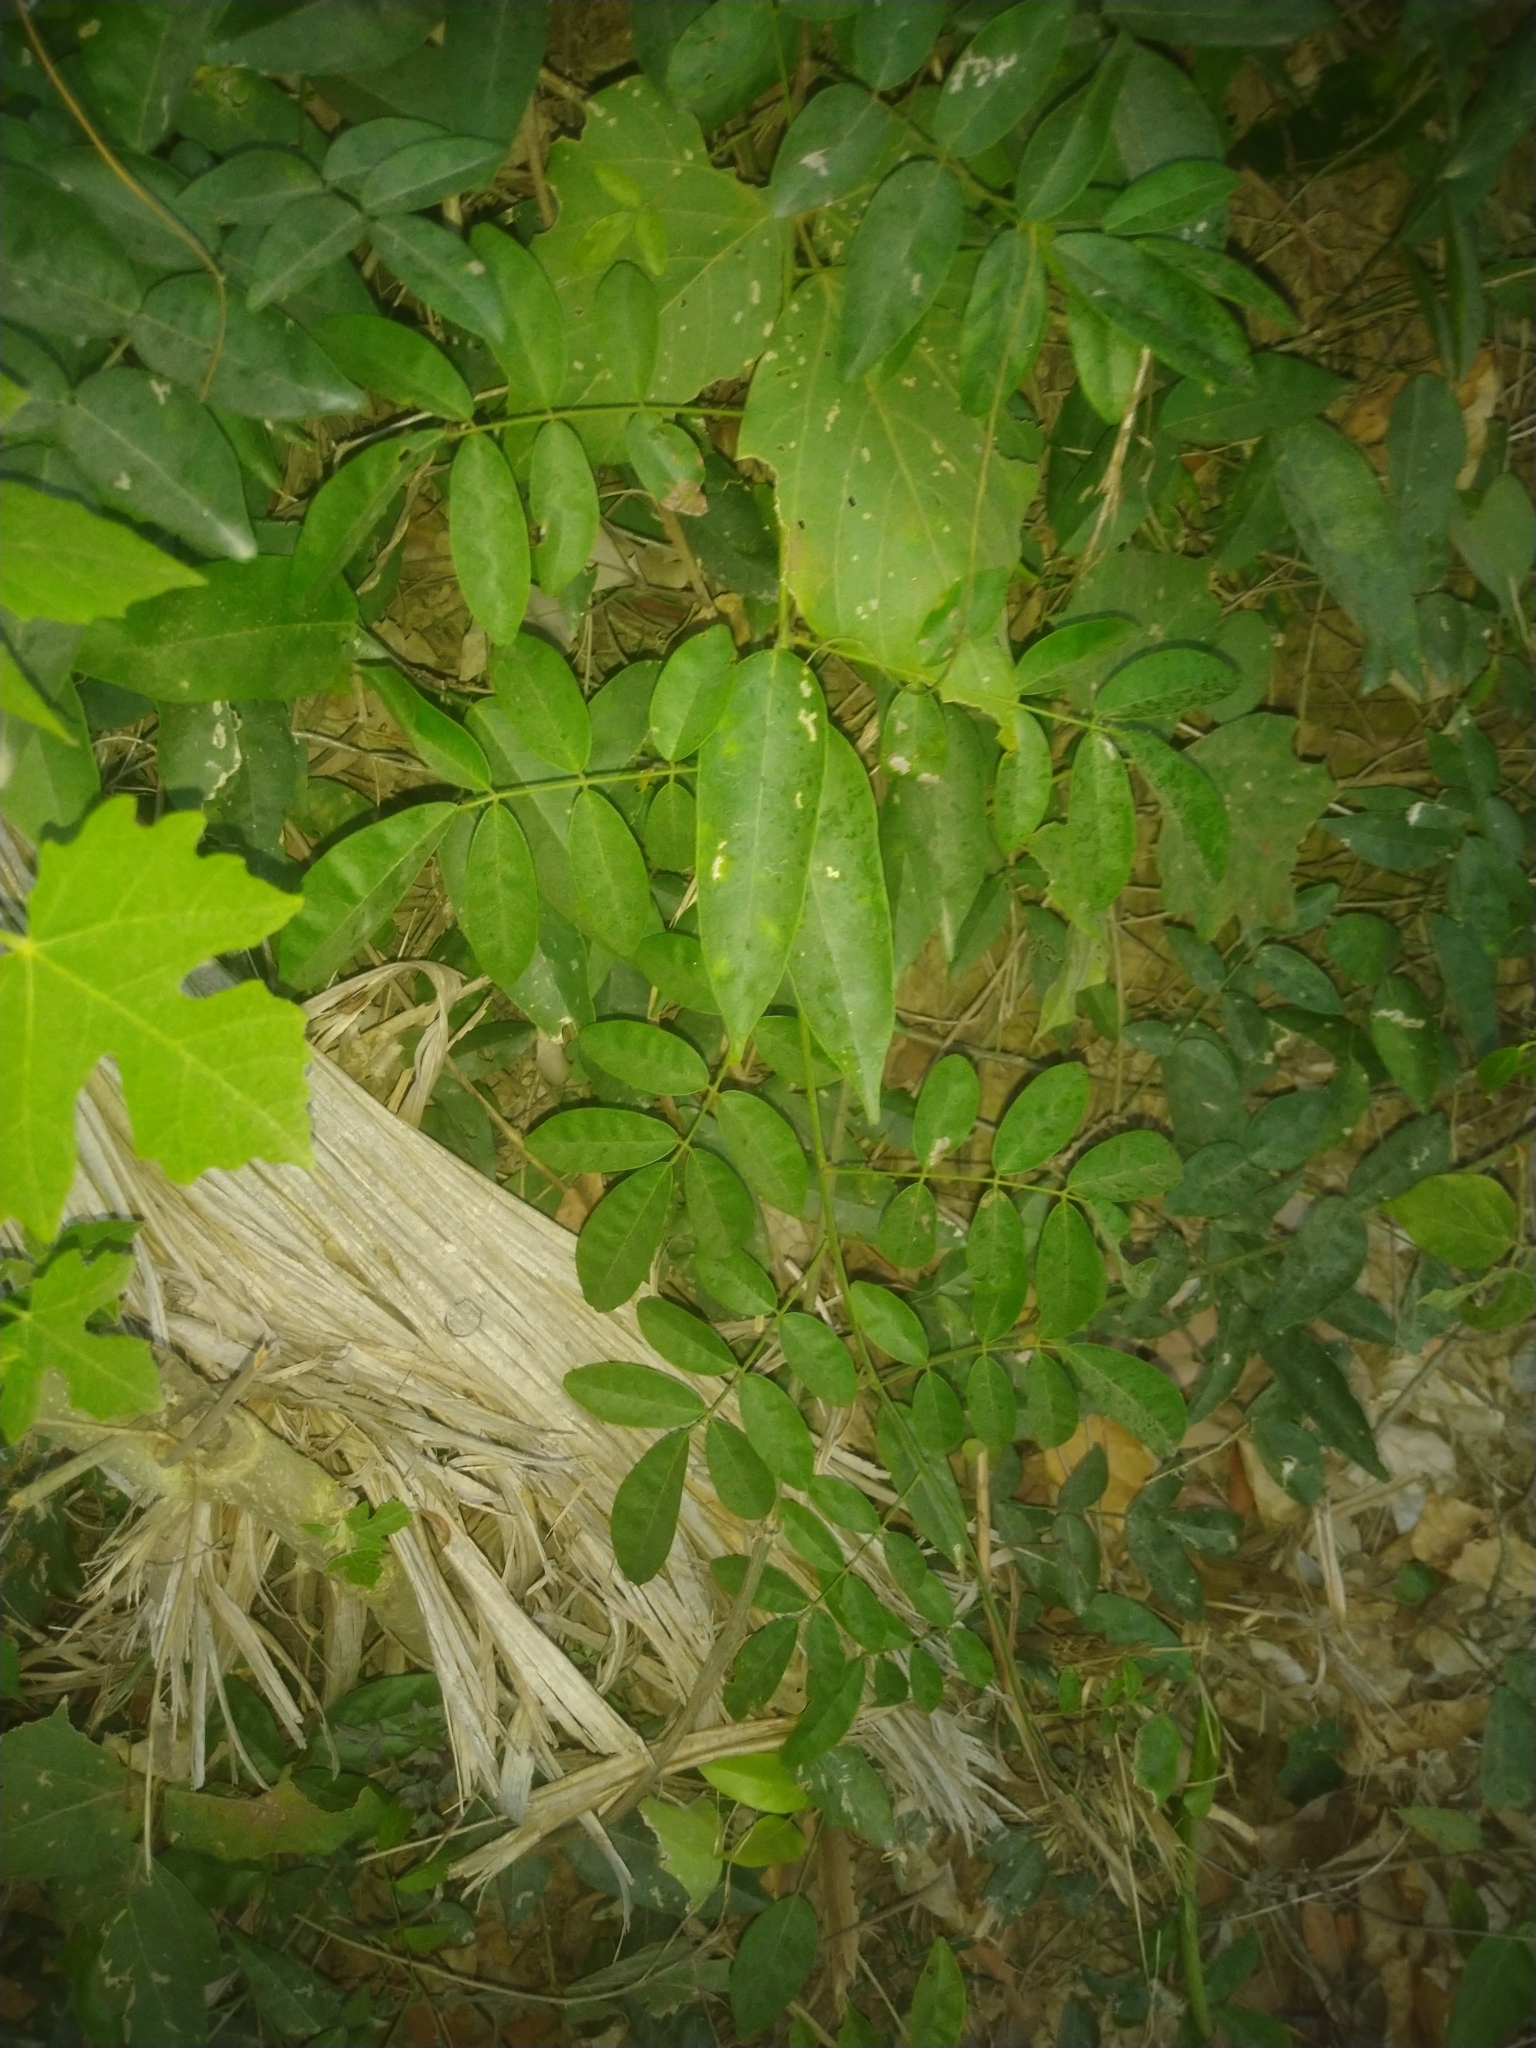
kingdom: Plantae
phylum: Tracheophyta
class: Magnoliopsida
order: Fabales
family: Fabaceae
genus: Wisteriopsis
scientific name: Wisteriopsis reticulata
